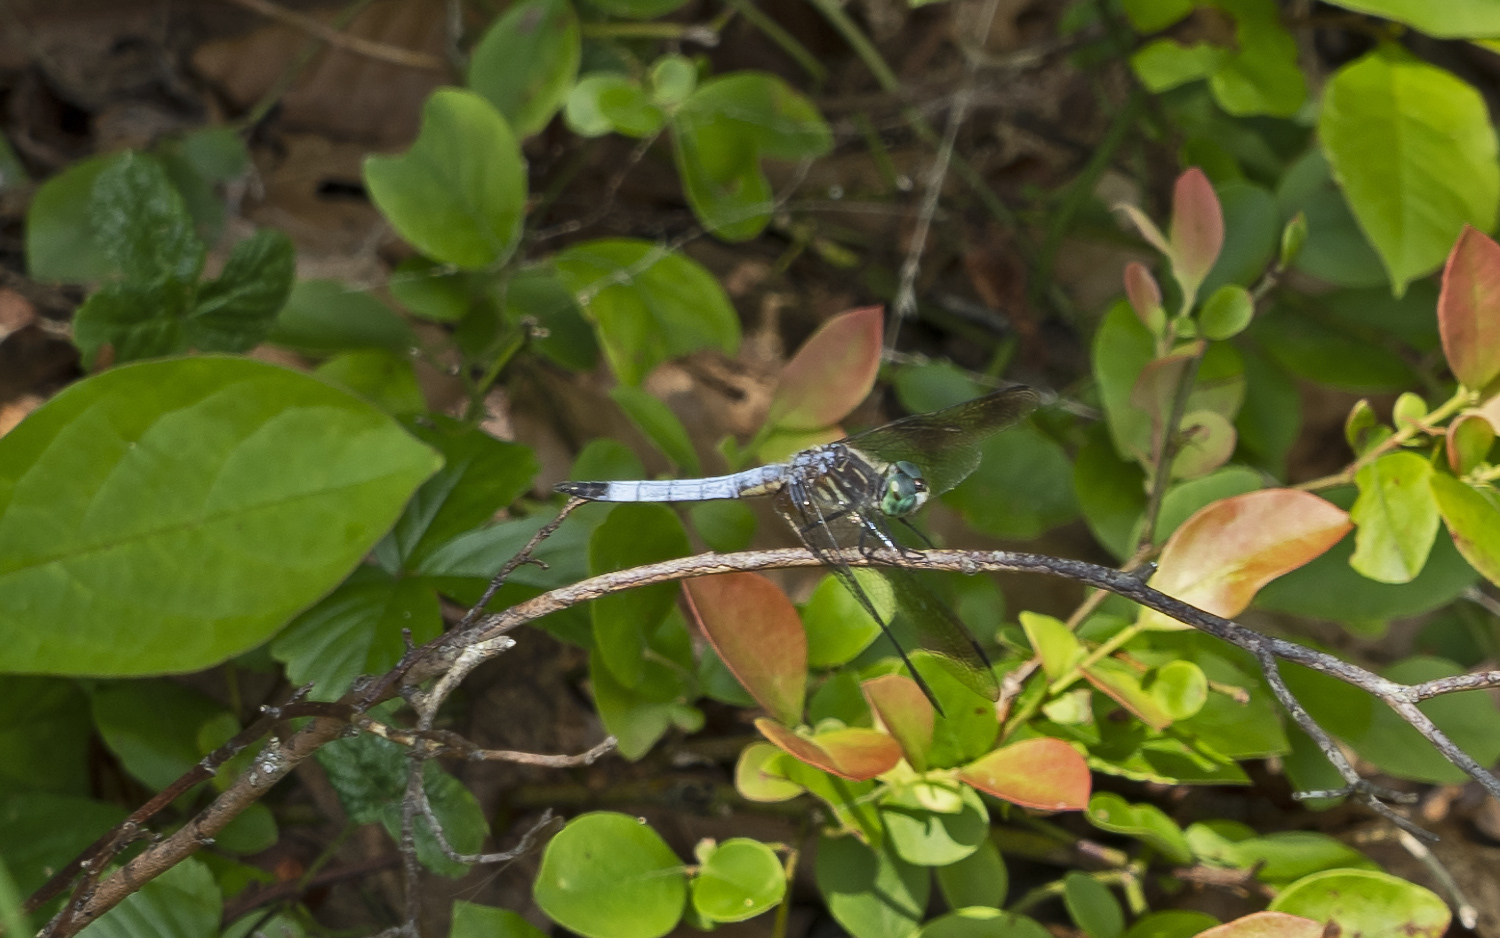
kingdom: Animalia
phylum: Arthropoda
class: Insecta
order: Odonata
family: Libellulidae
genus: Pachydiplax
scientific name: Pachydiplax longipennis
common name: Blue dasher
